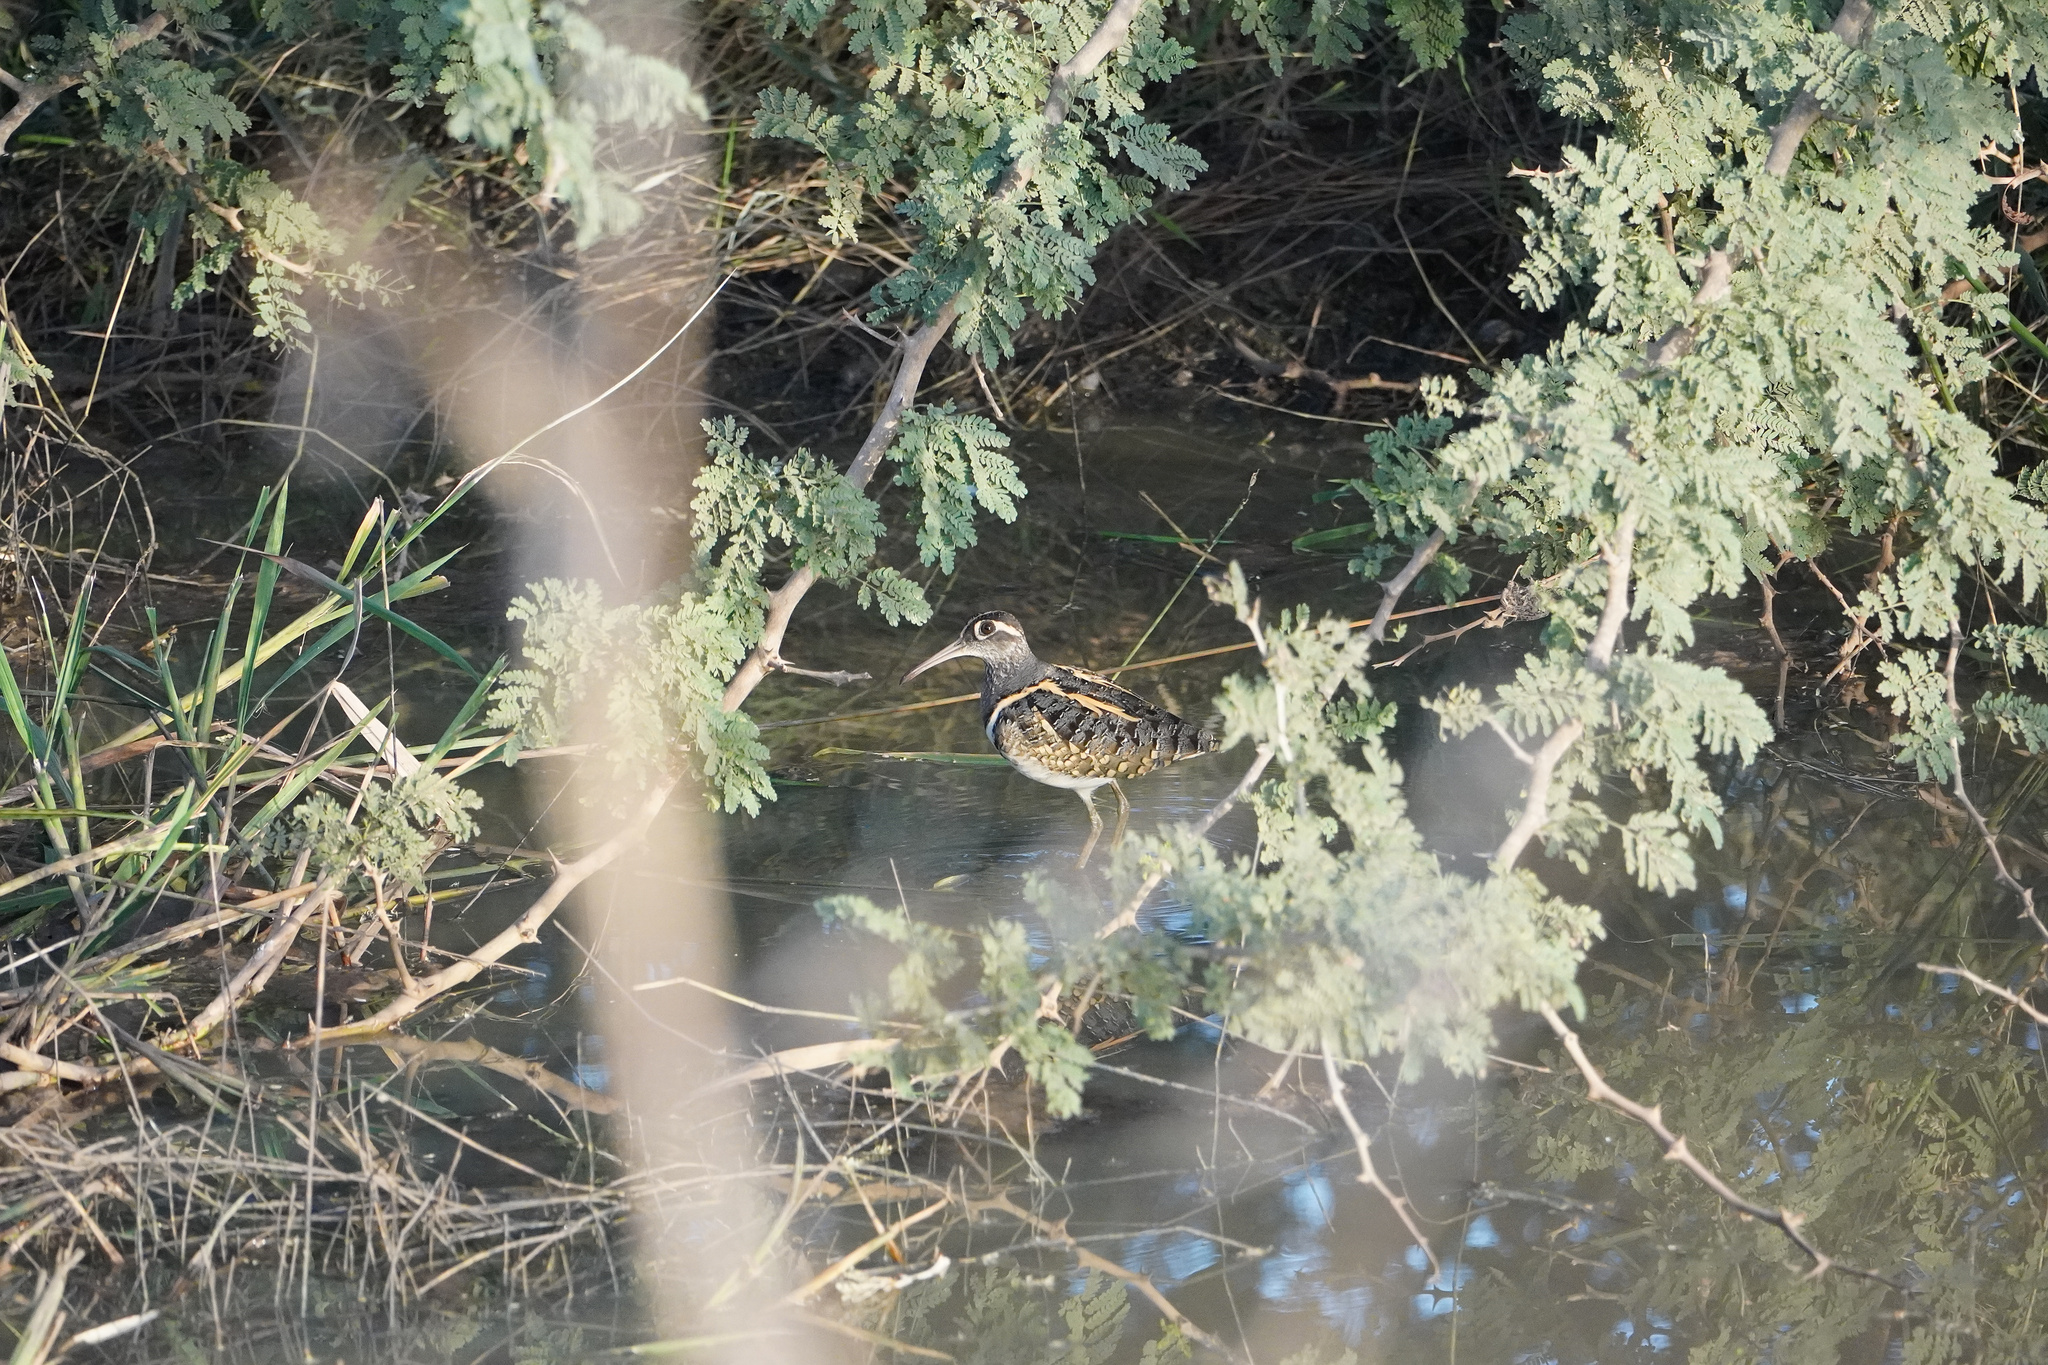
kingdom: Animalia
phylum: Chordata
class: Aves
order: Charadriiformes
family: Rostratulidae
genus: Rostratula
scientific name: Rostratula benghalensis
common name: Greater painted-snipe
